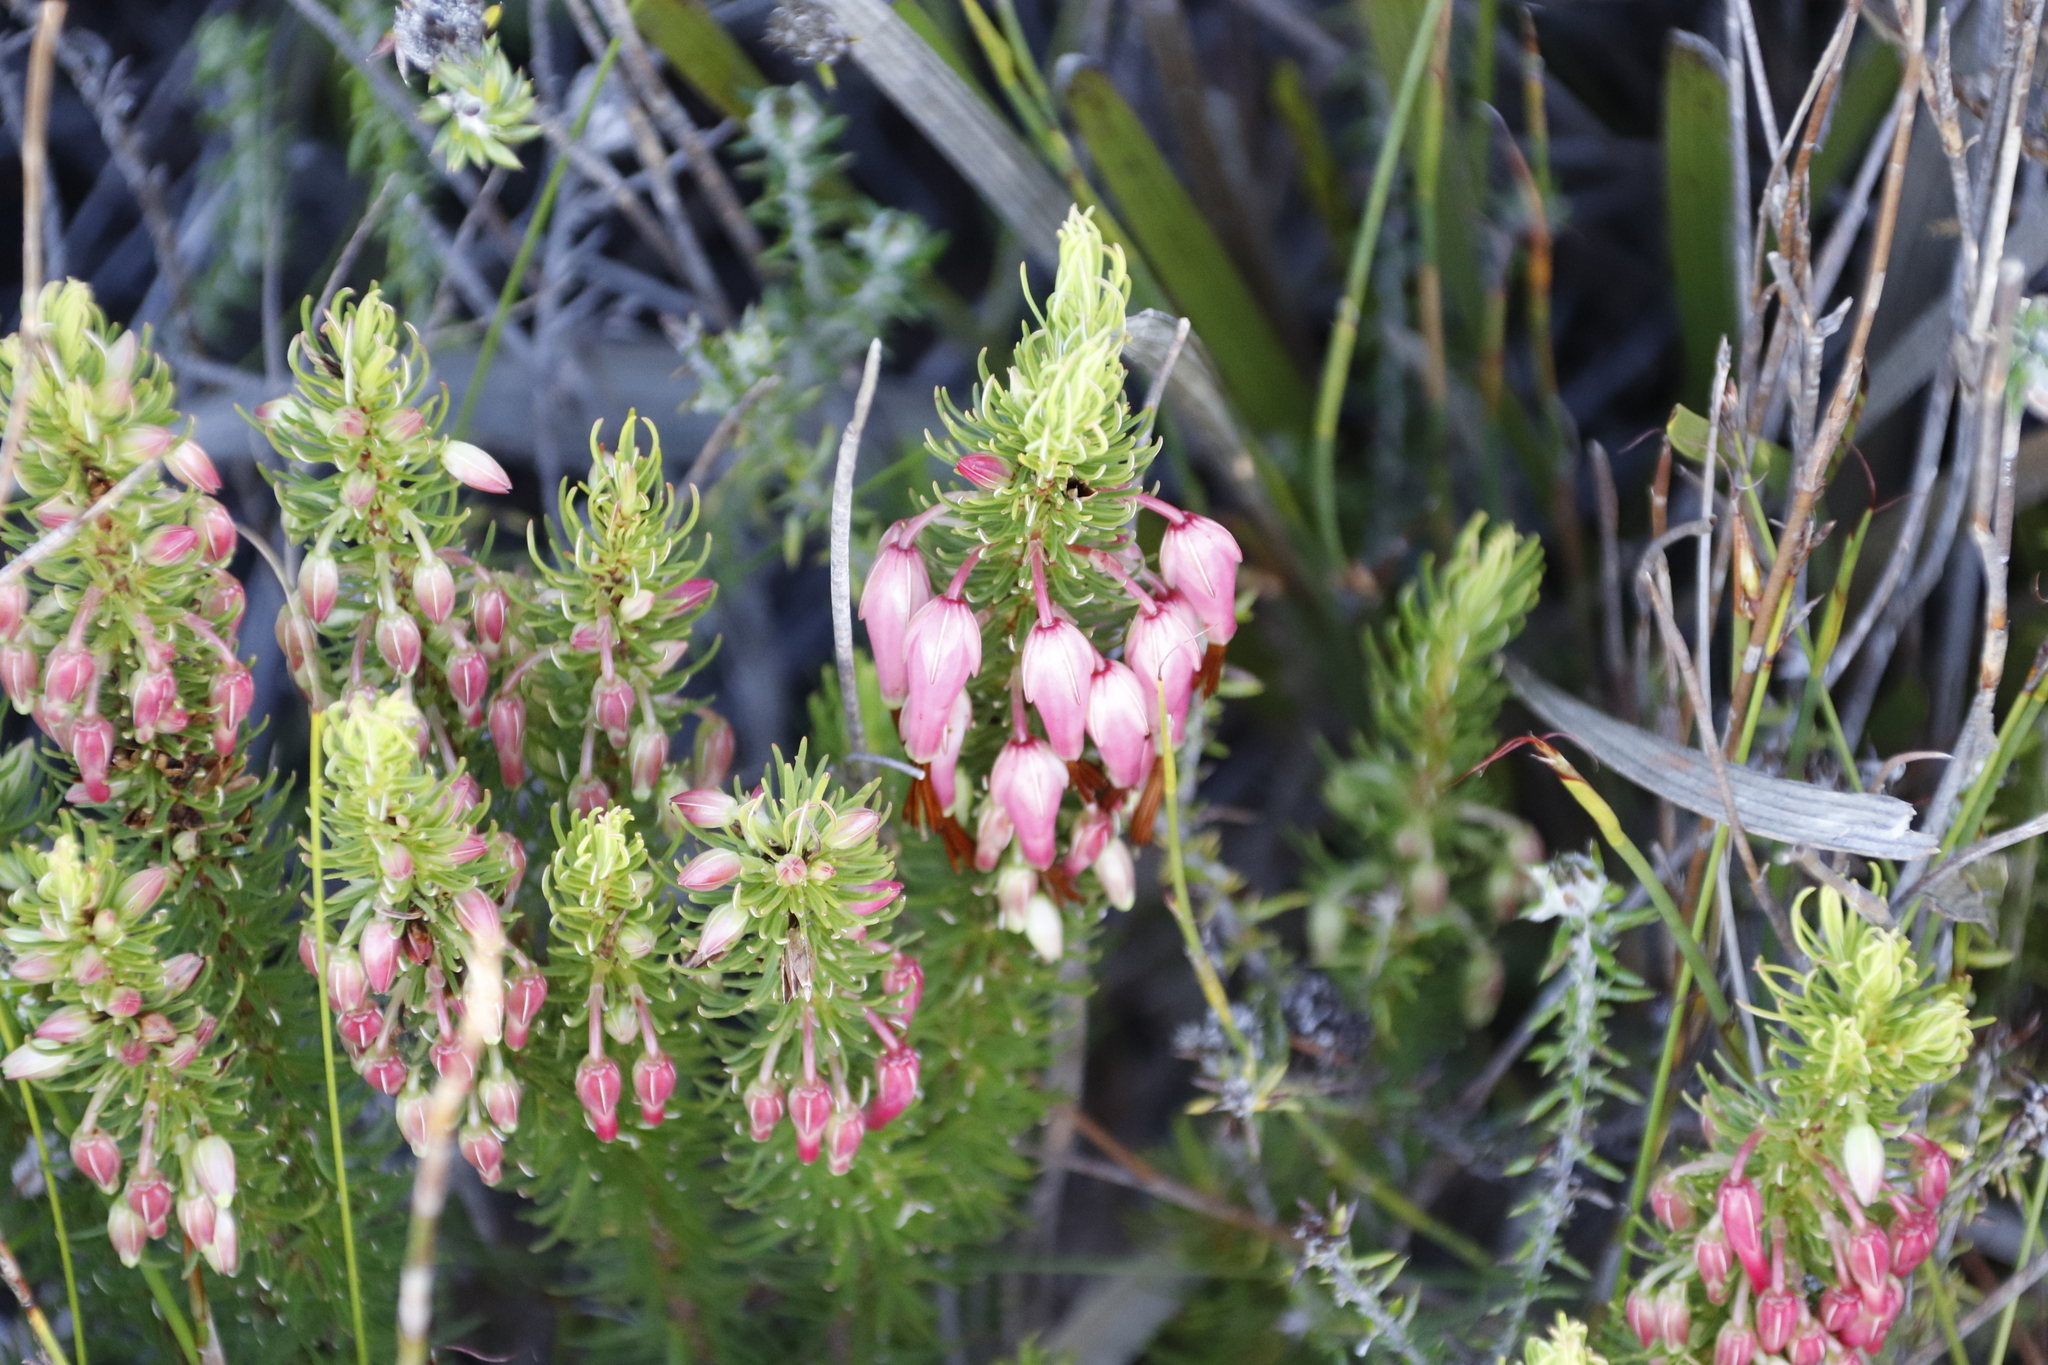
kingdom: Plantae
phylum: Tracheophyta
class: Magnoliopsida
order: Ericales
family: Ericaceae
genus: Erica
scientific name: Erica plukenetii
